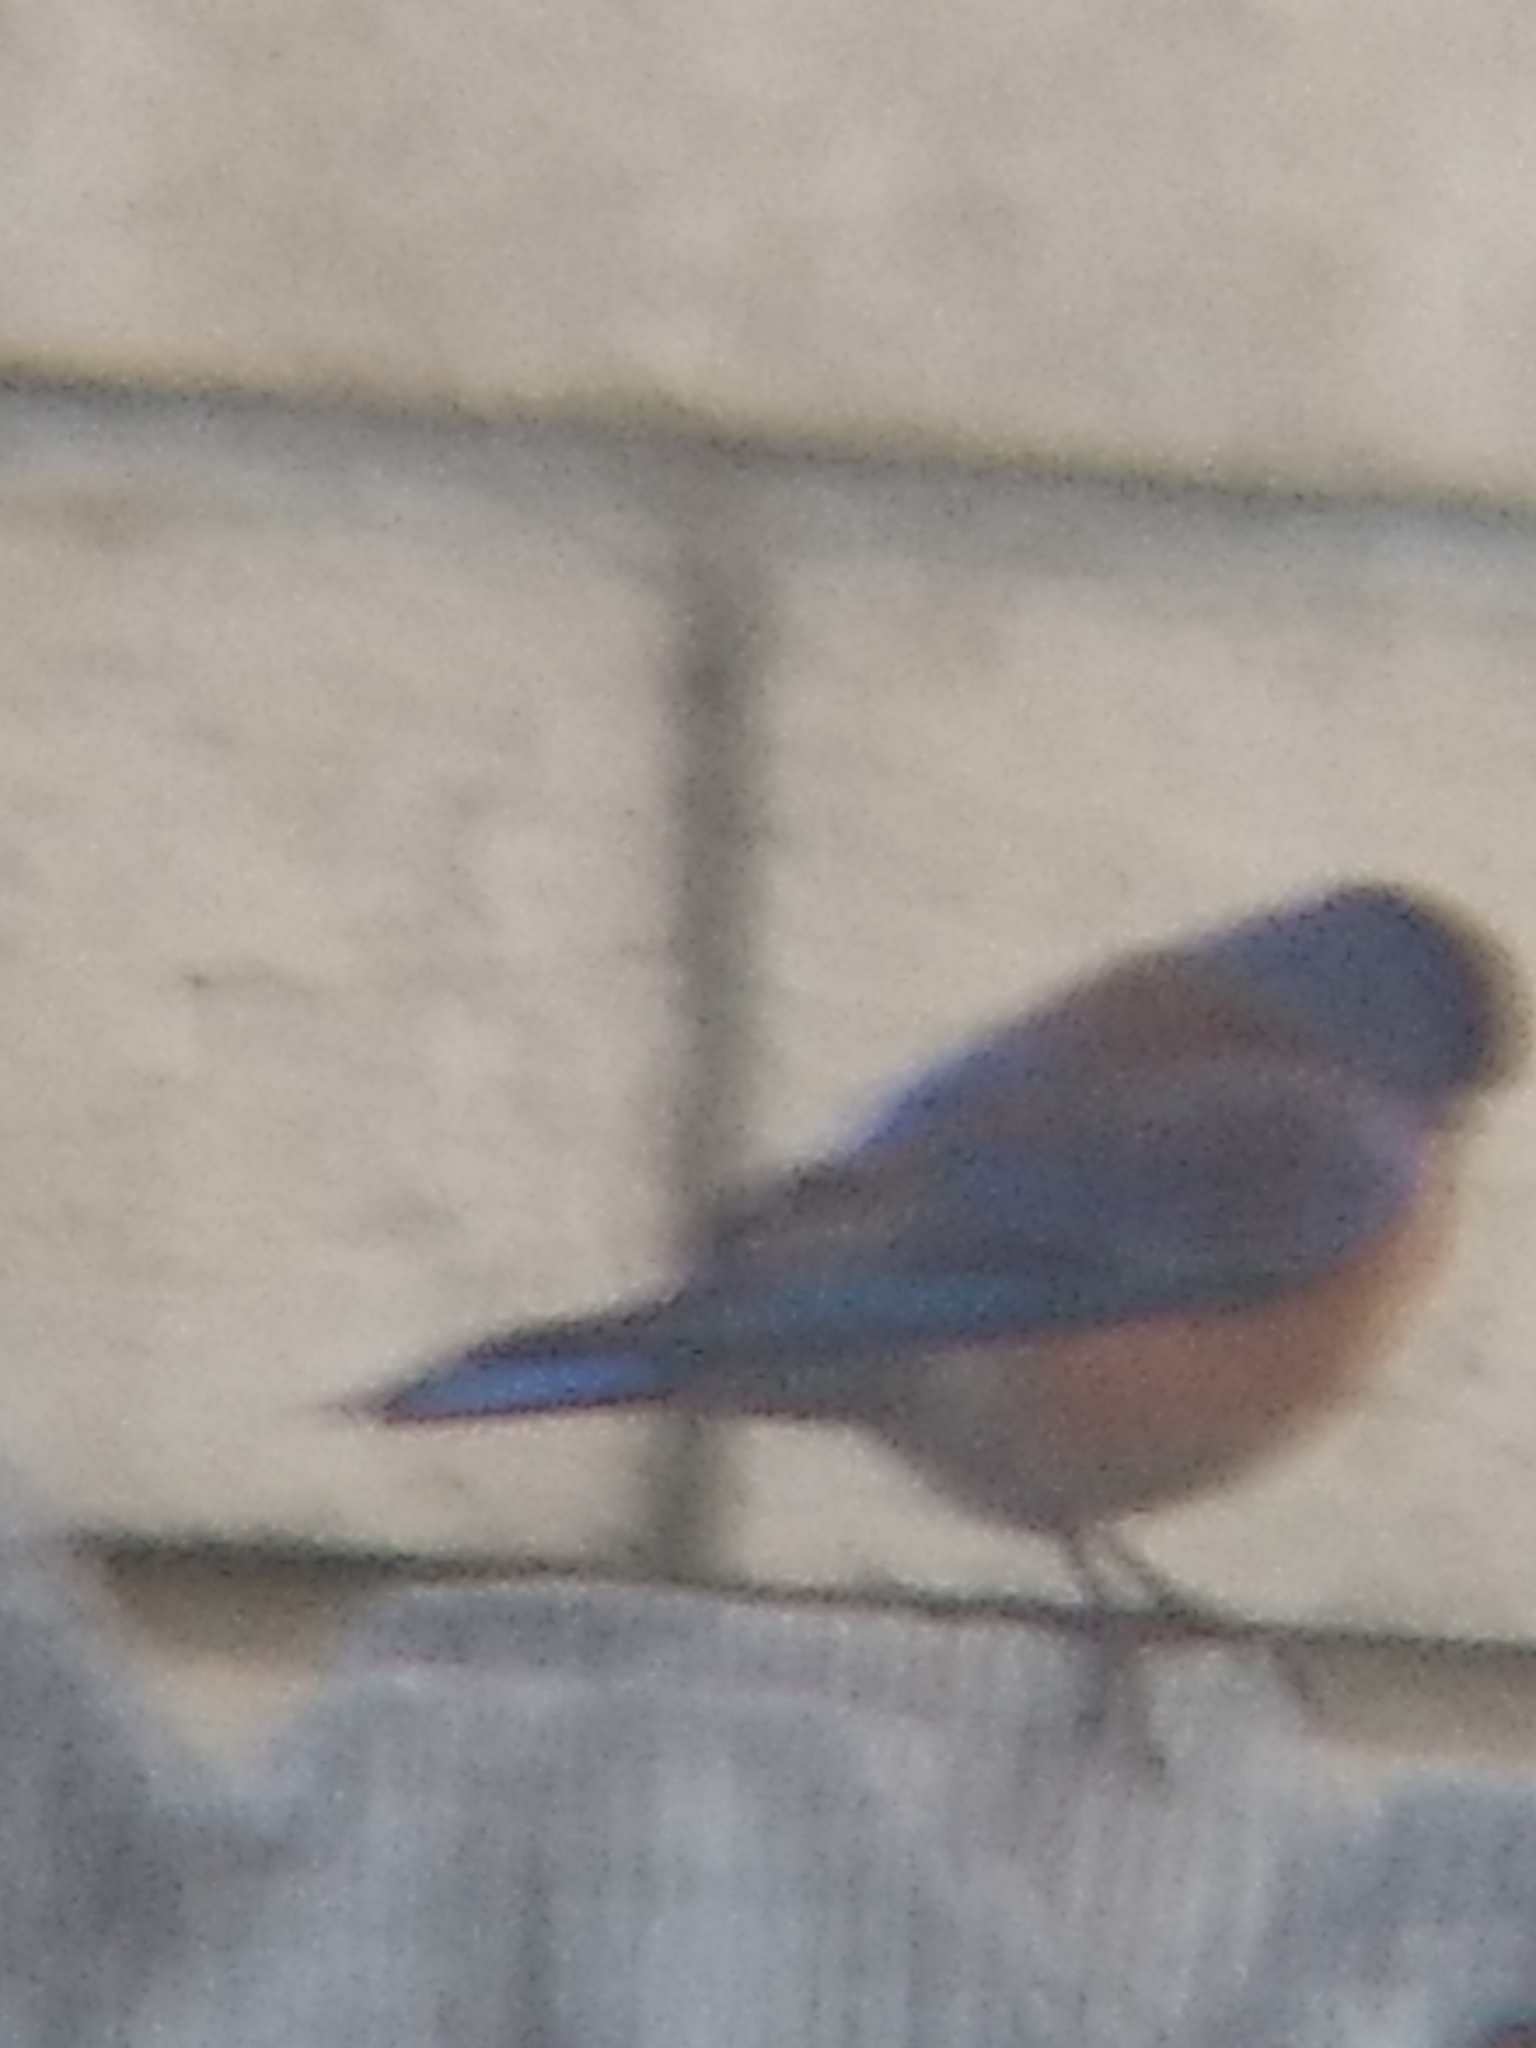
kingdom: Animalia
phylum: Chordata
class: Aves
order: Passeriformes
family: Turdidae
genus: Sialia
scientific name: Sialia mexicana
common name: Western bluebird
